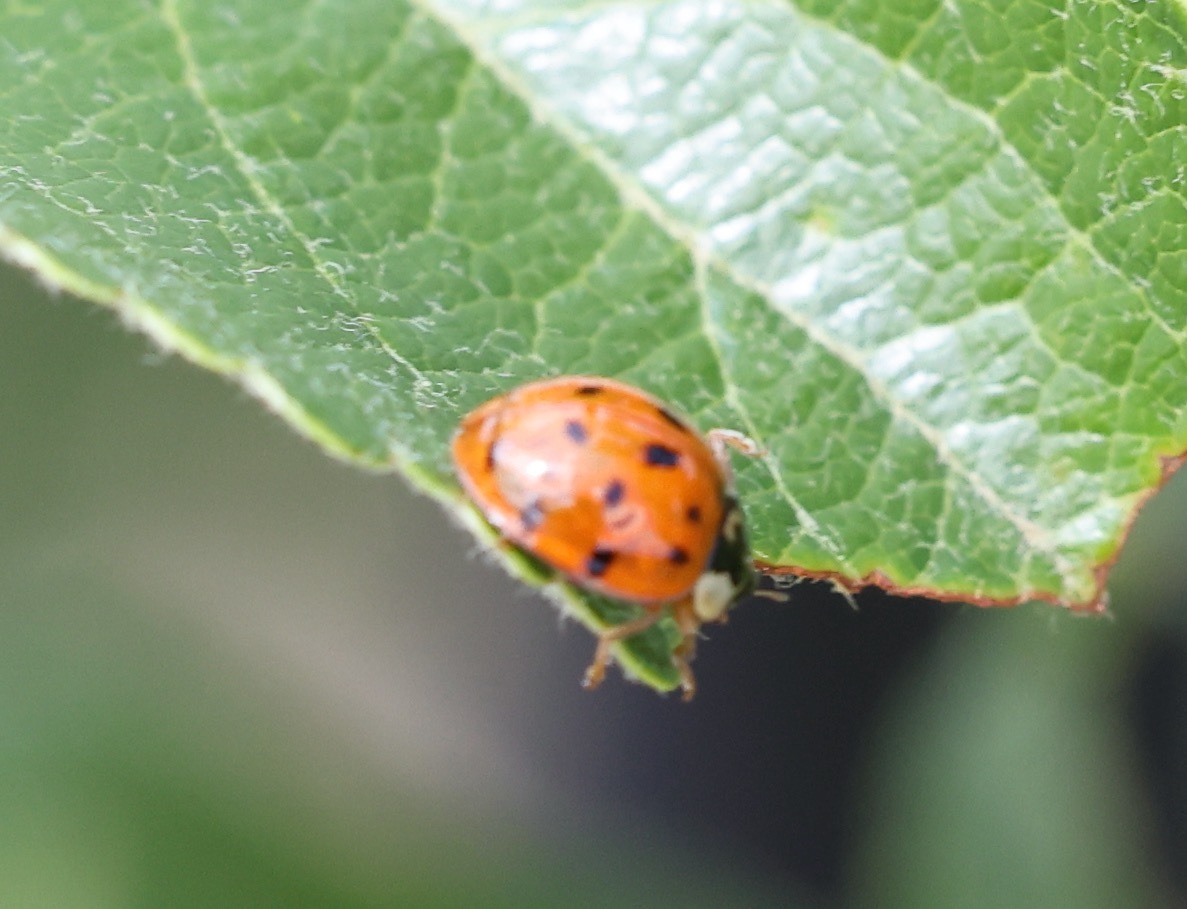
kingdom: Animalia
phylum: Arthropoda
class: Insecta
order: Coleoptera
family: Coccinellidae
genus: Harmonia
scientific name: Harmonia axyridis
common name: Harlequin ladybird
